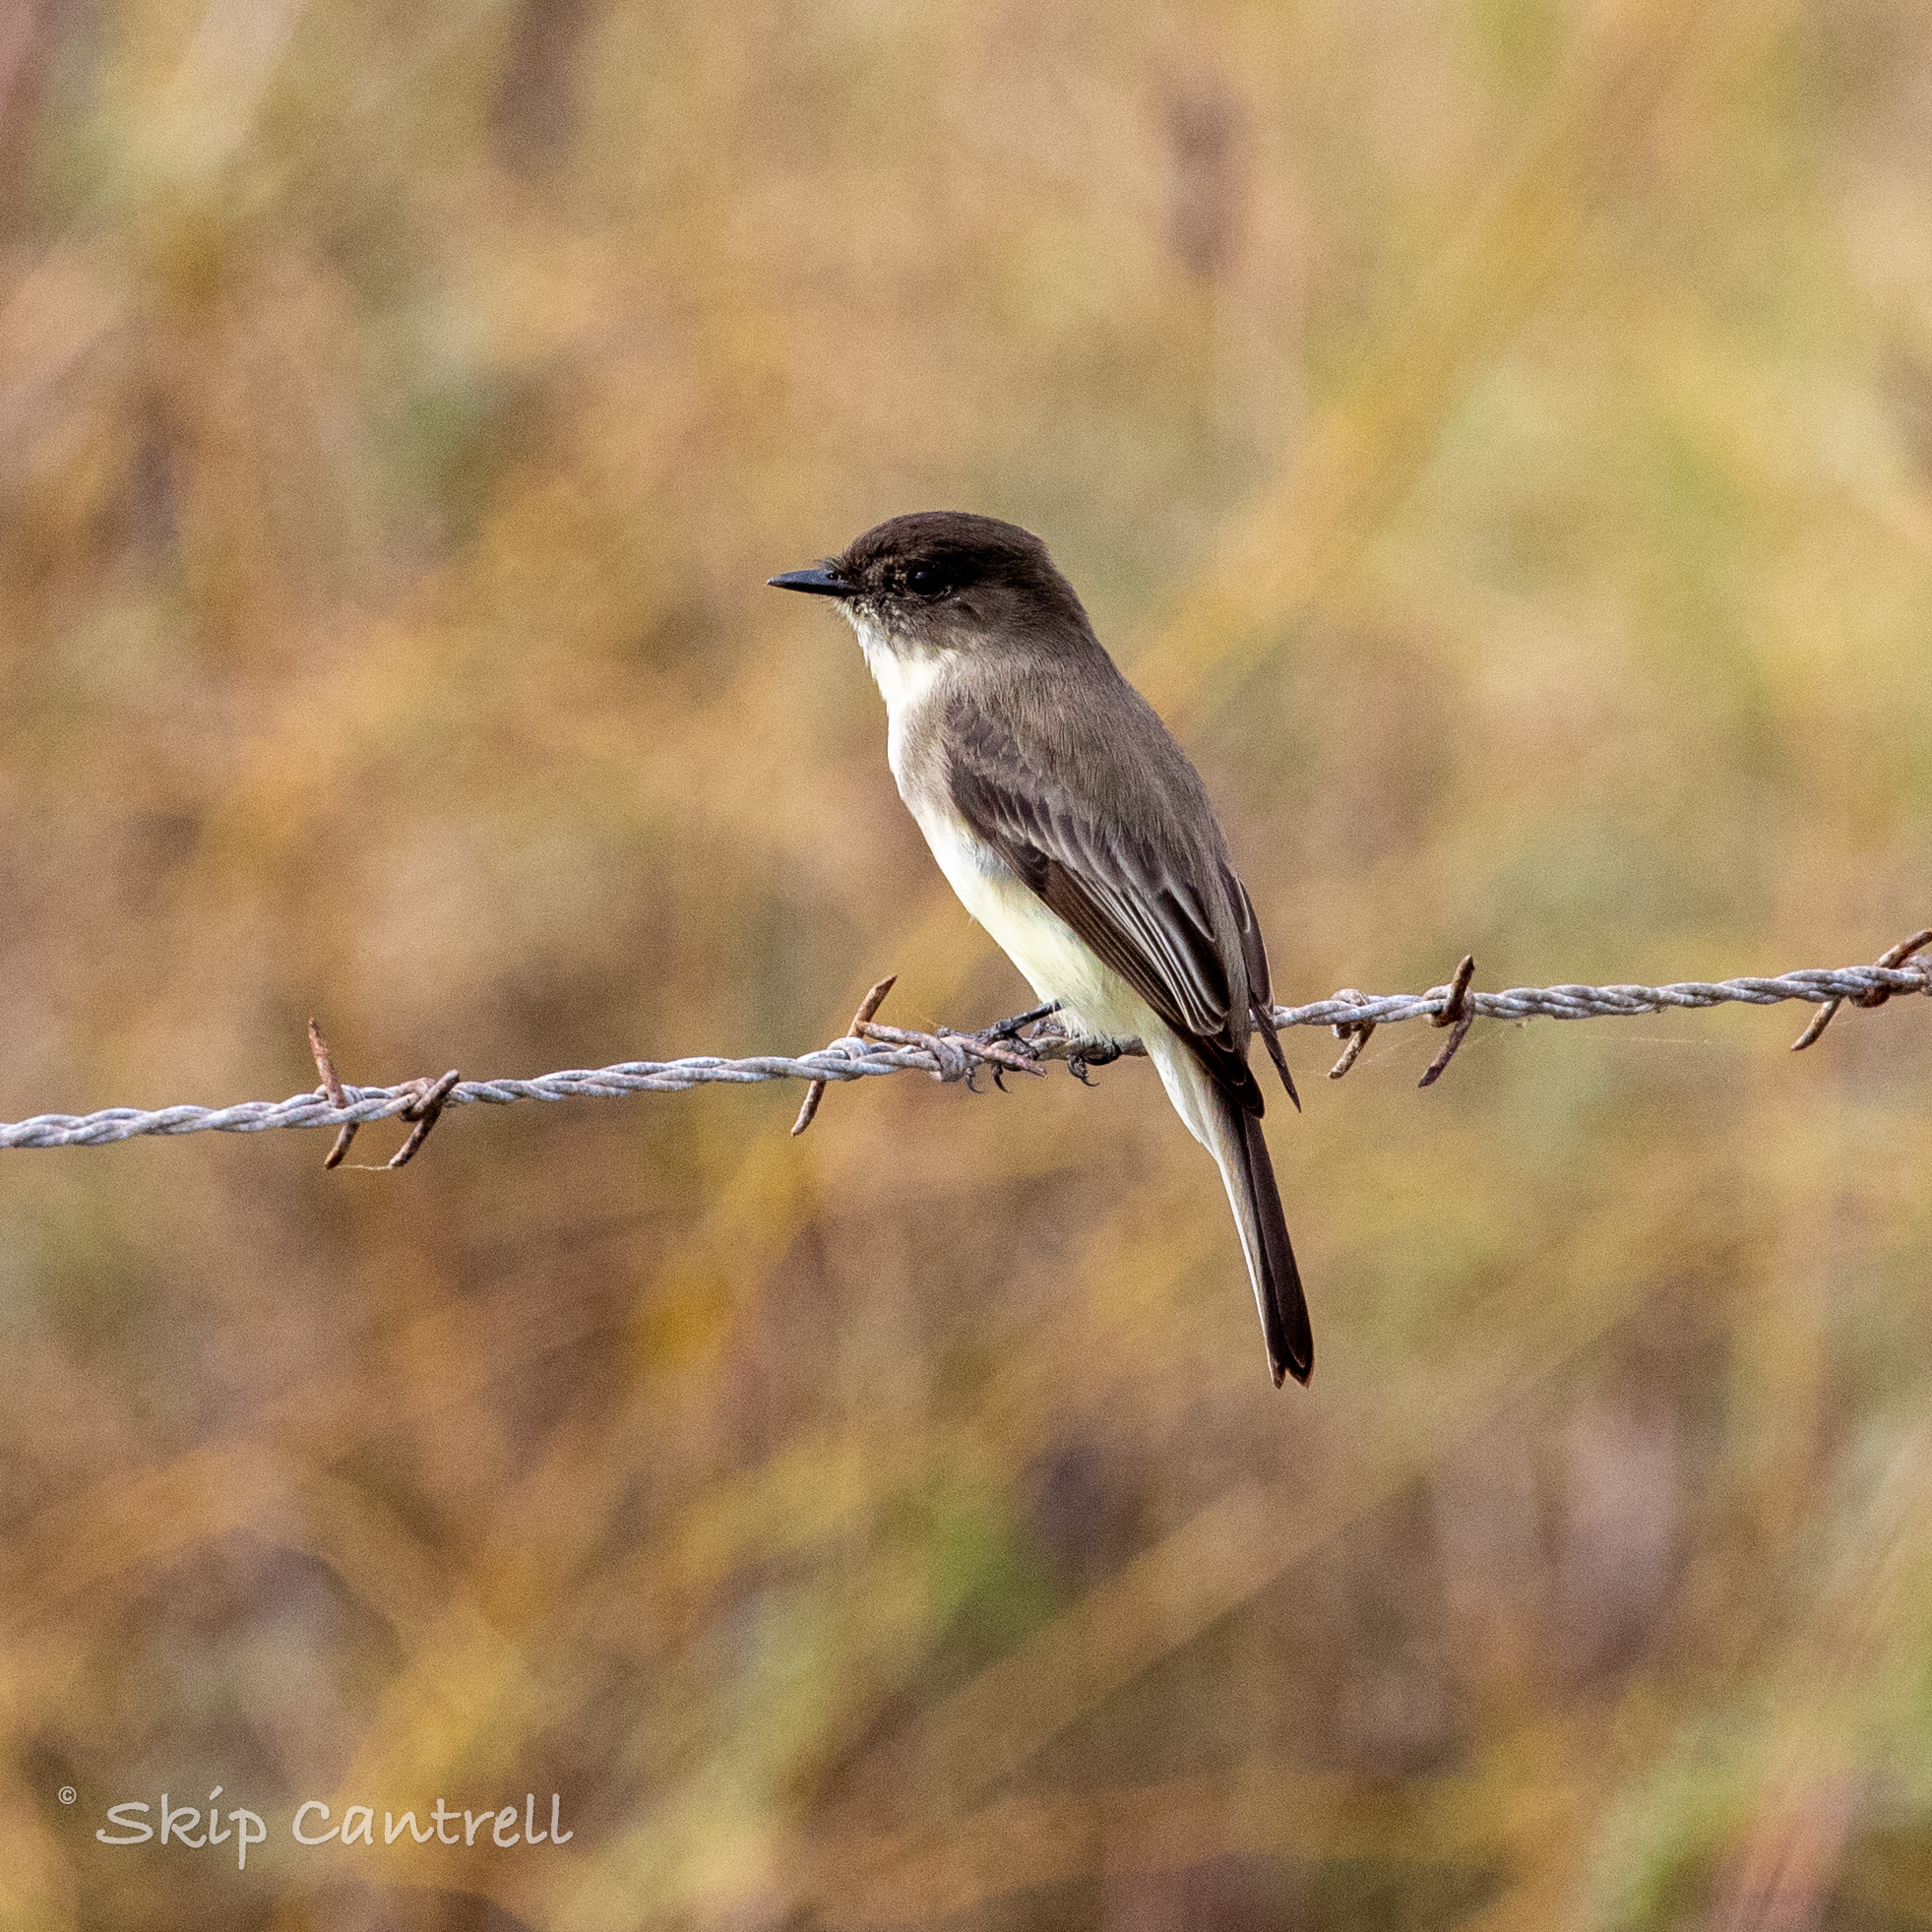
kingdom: Animalia
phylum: Chordata
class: Aves
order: Passeriformes
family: Tyrannidae
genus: Sayornis
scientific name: Sayornis phoebe
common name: Eastern phoebe
